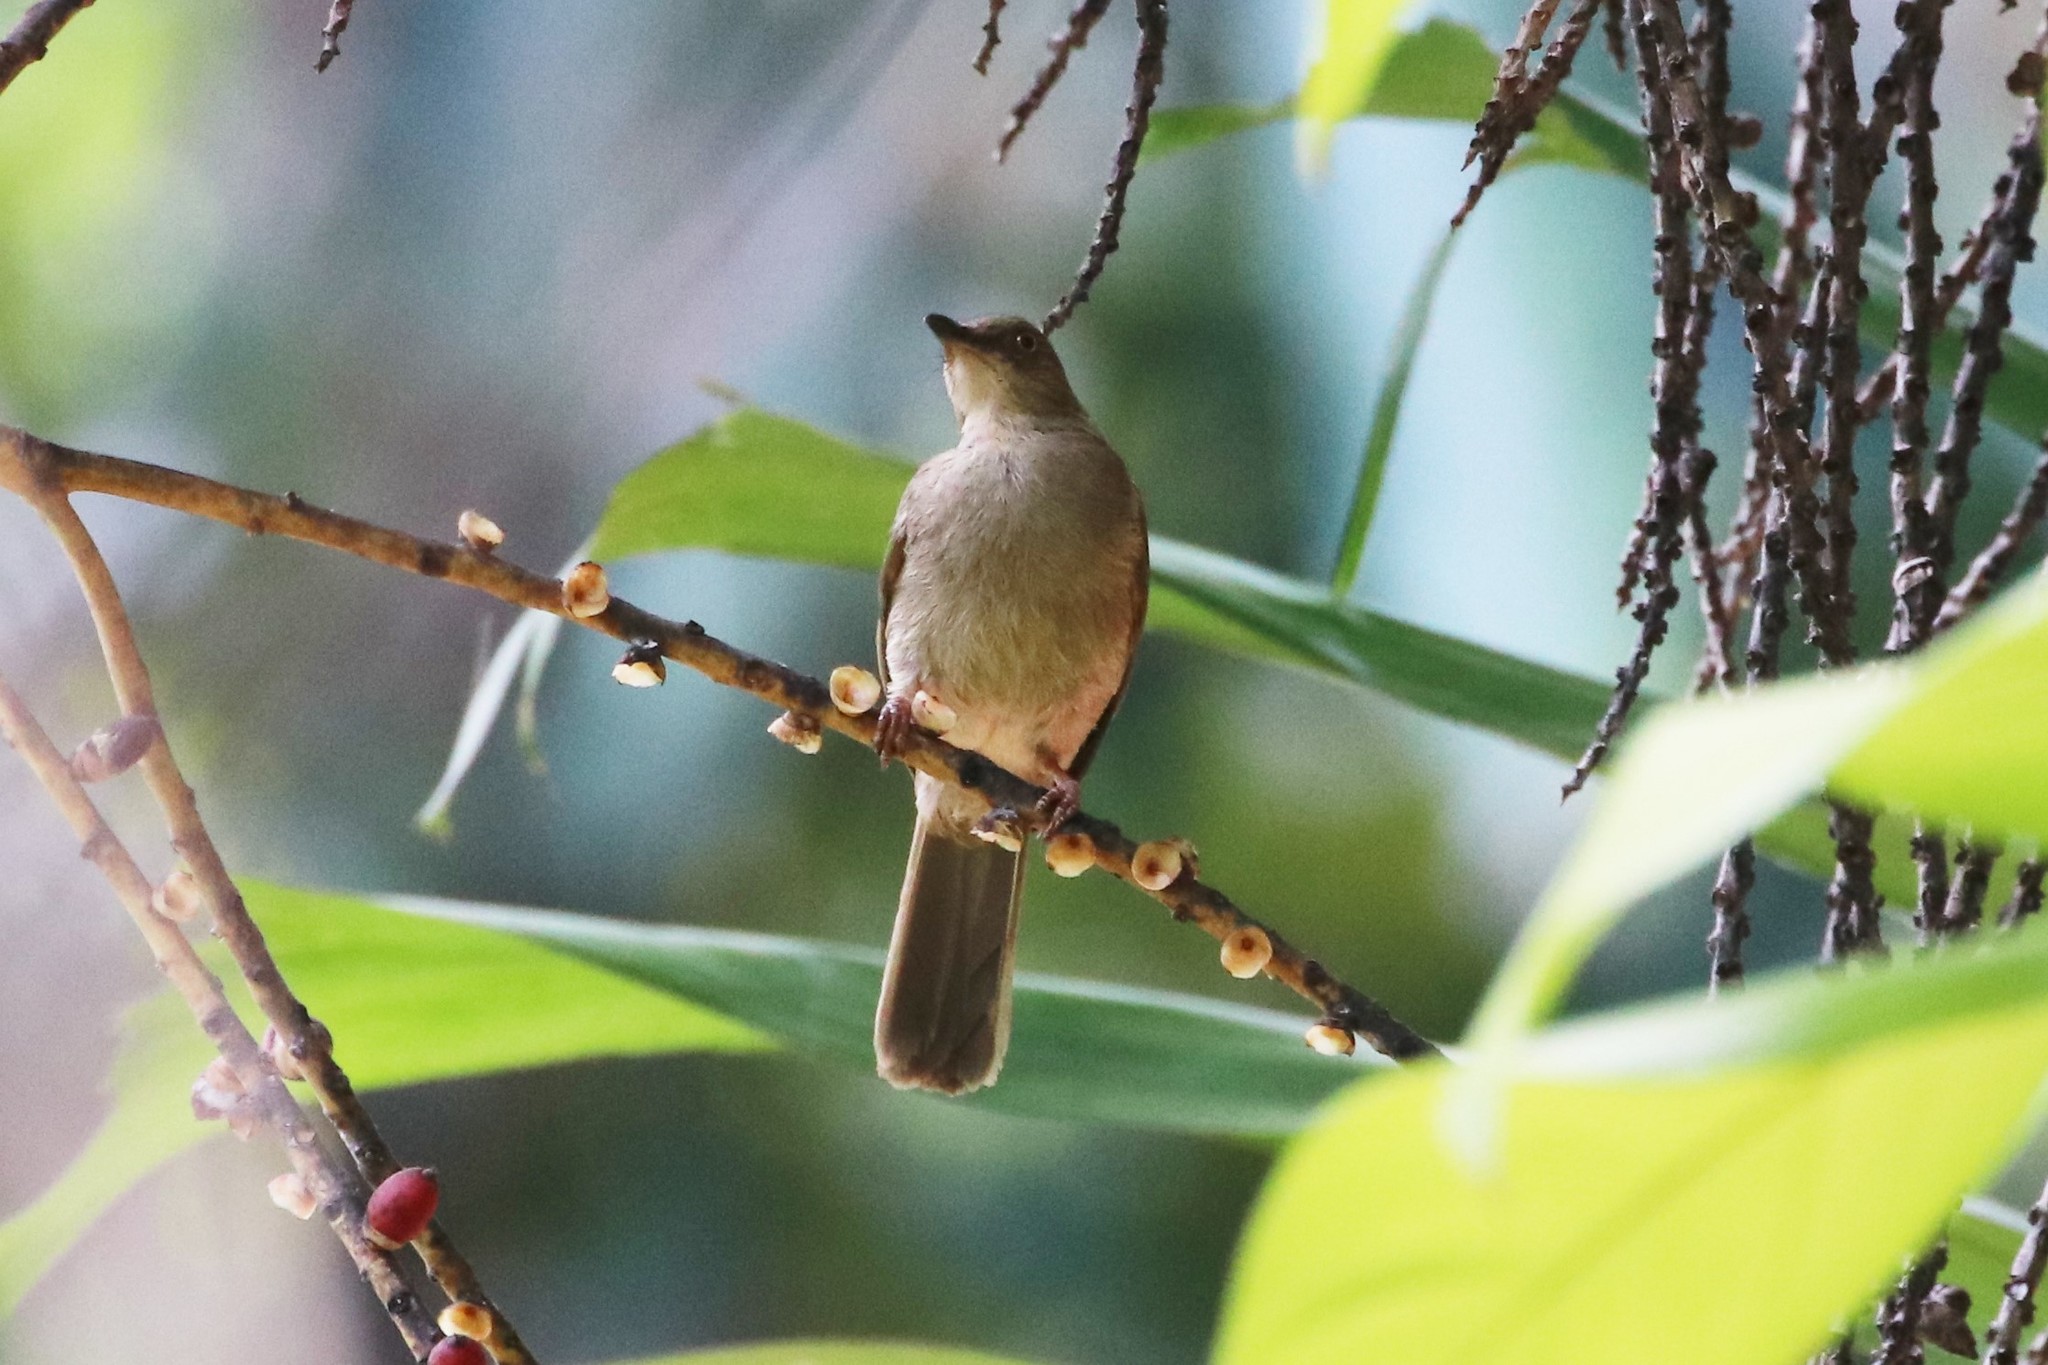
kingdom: Animalia
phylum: Chordata
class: Aves
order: Passeriformes
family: Pycnonotidae
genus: Pycnonotus
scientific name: Pycnonotus brunneus
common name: Asian red-eyed bulbul
